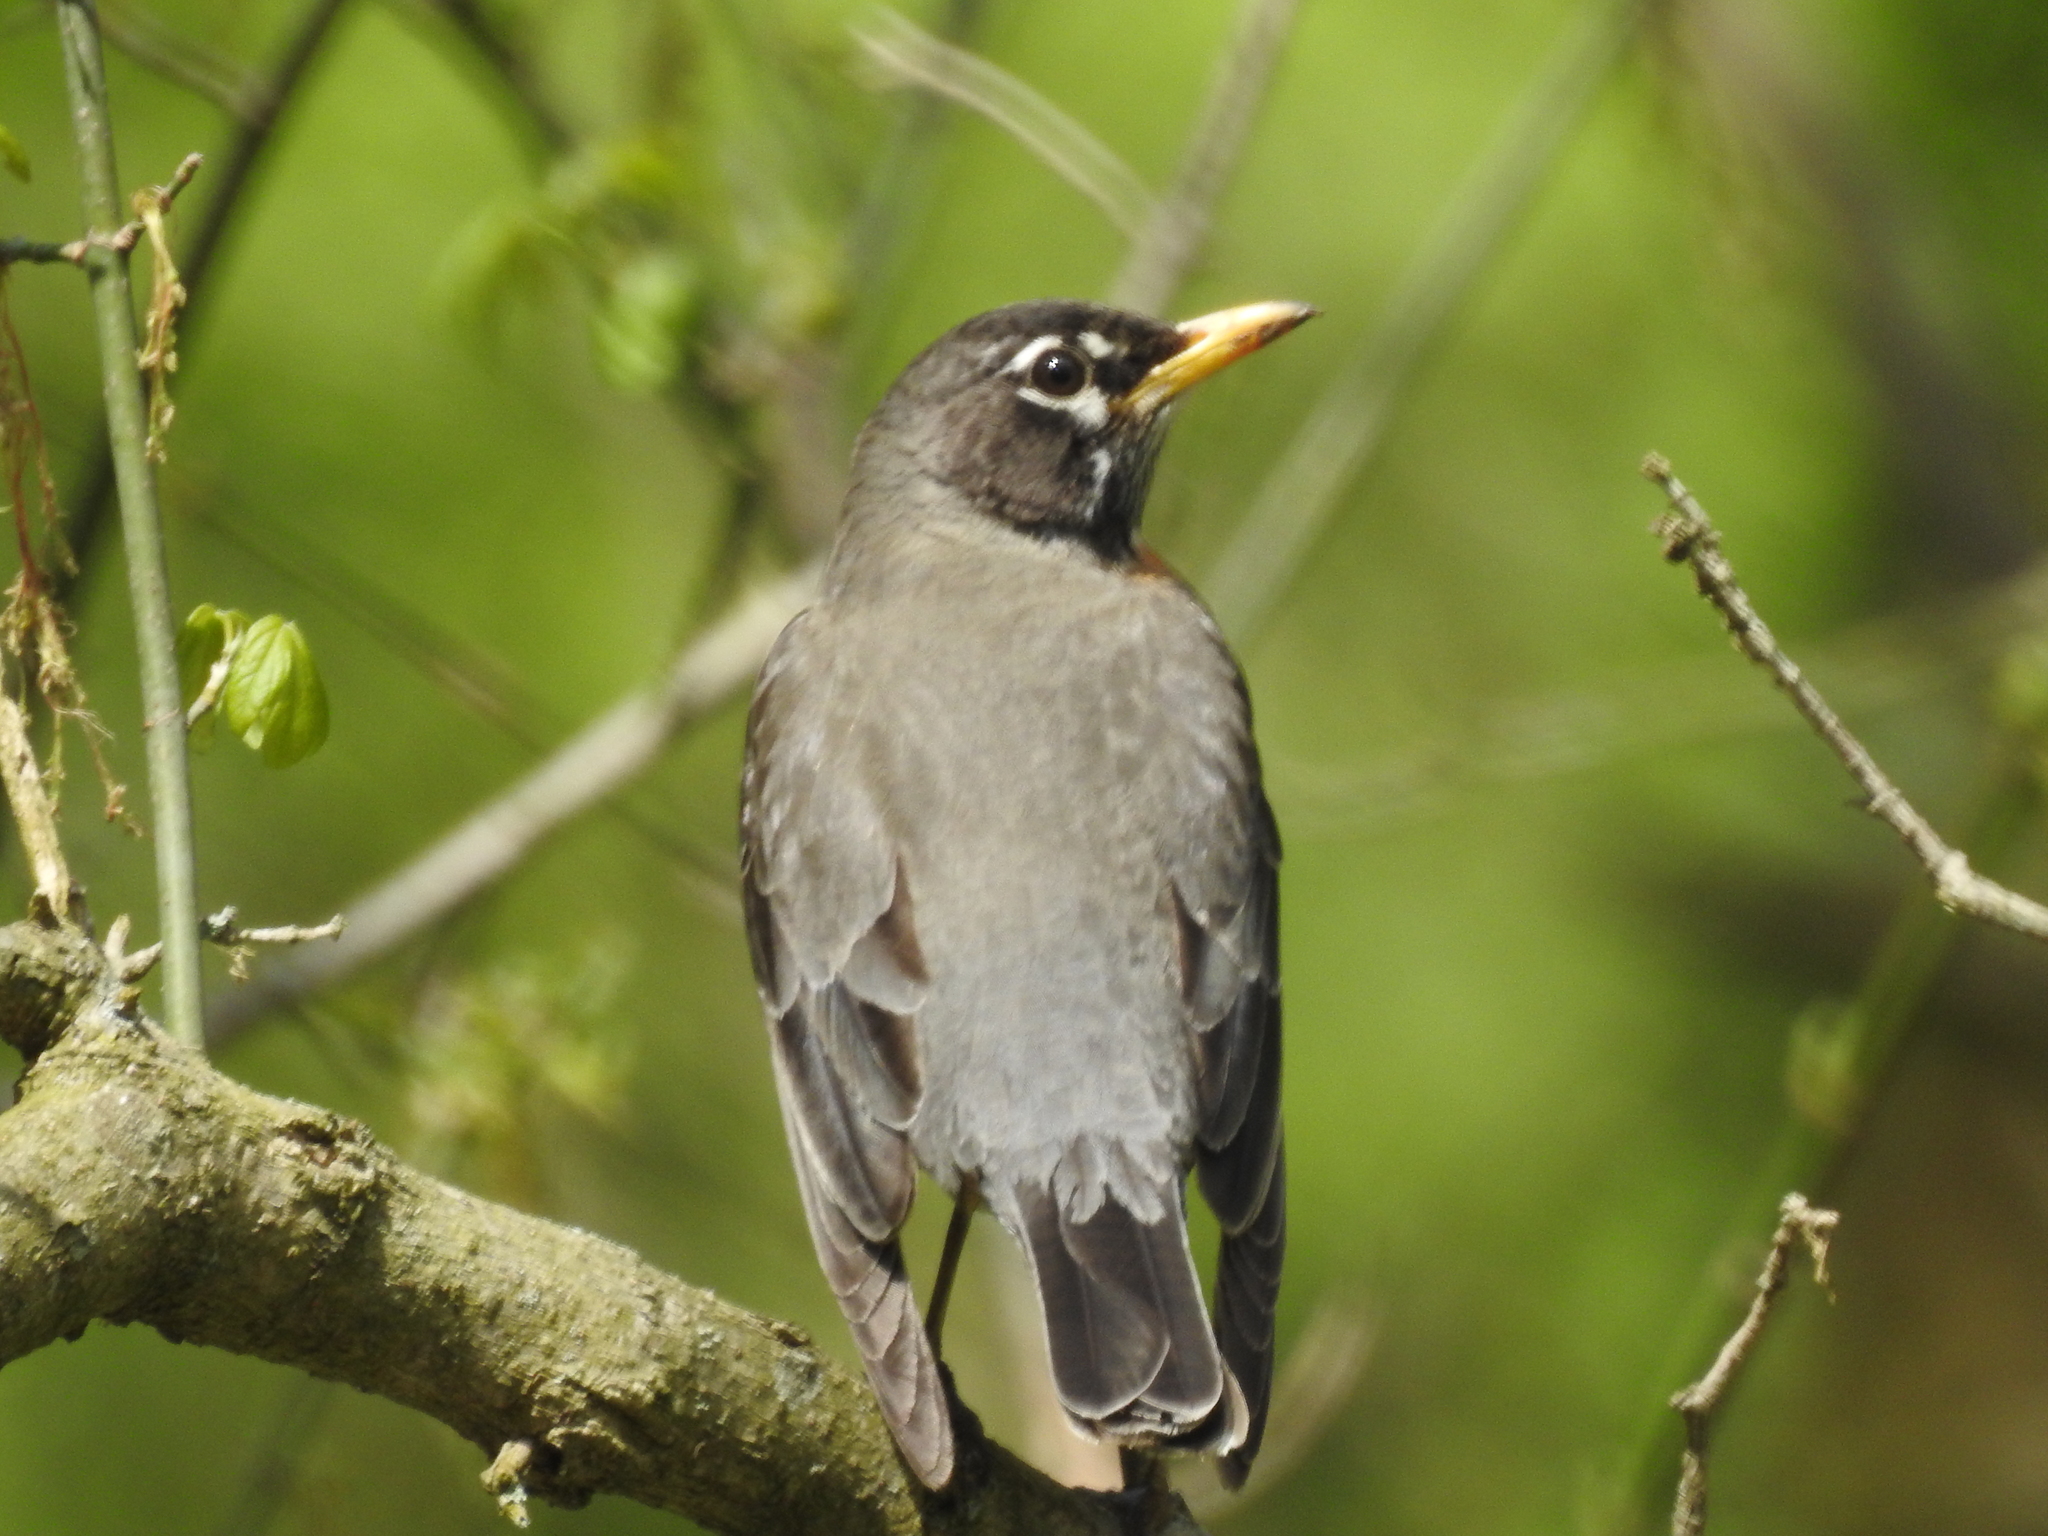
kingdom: Animalia
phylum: Chordata
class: Aves
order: Passeriformes
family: Turdidae
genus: Turdus
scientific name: Turdus migratorius
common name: American robin
